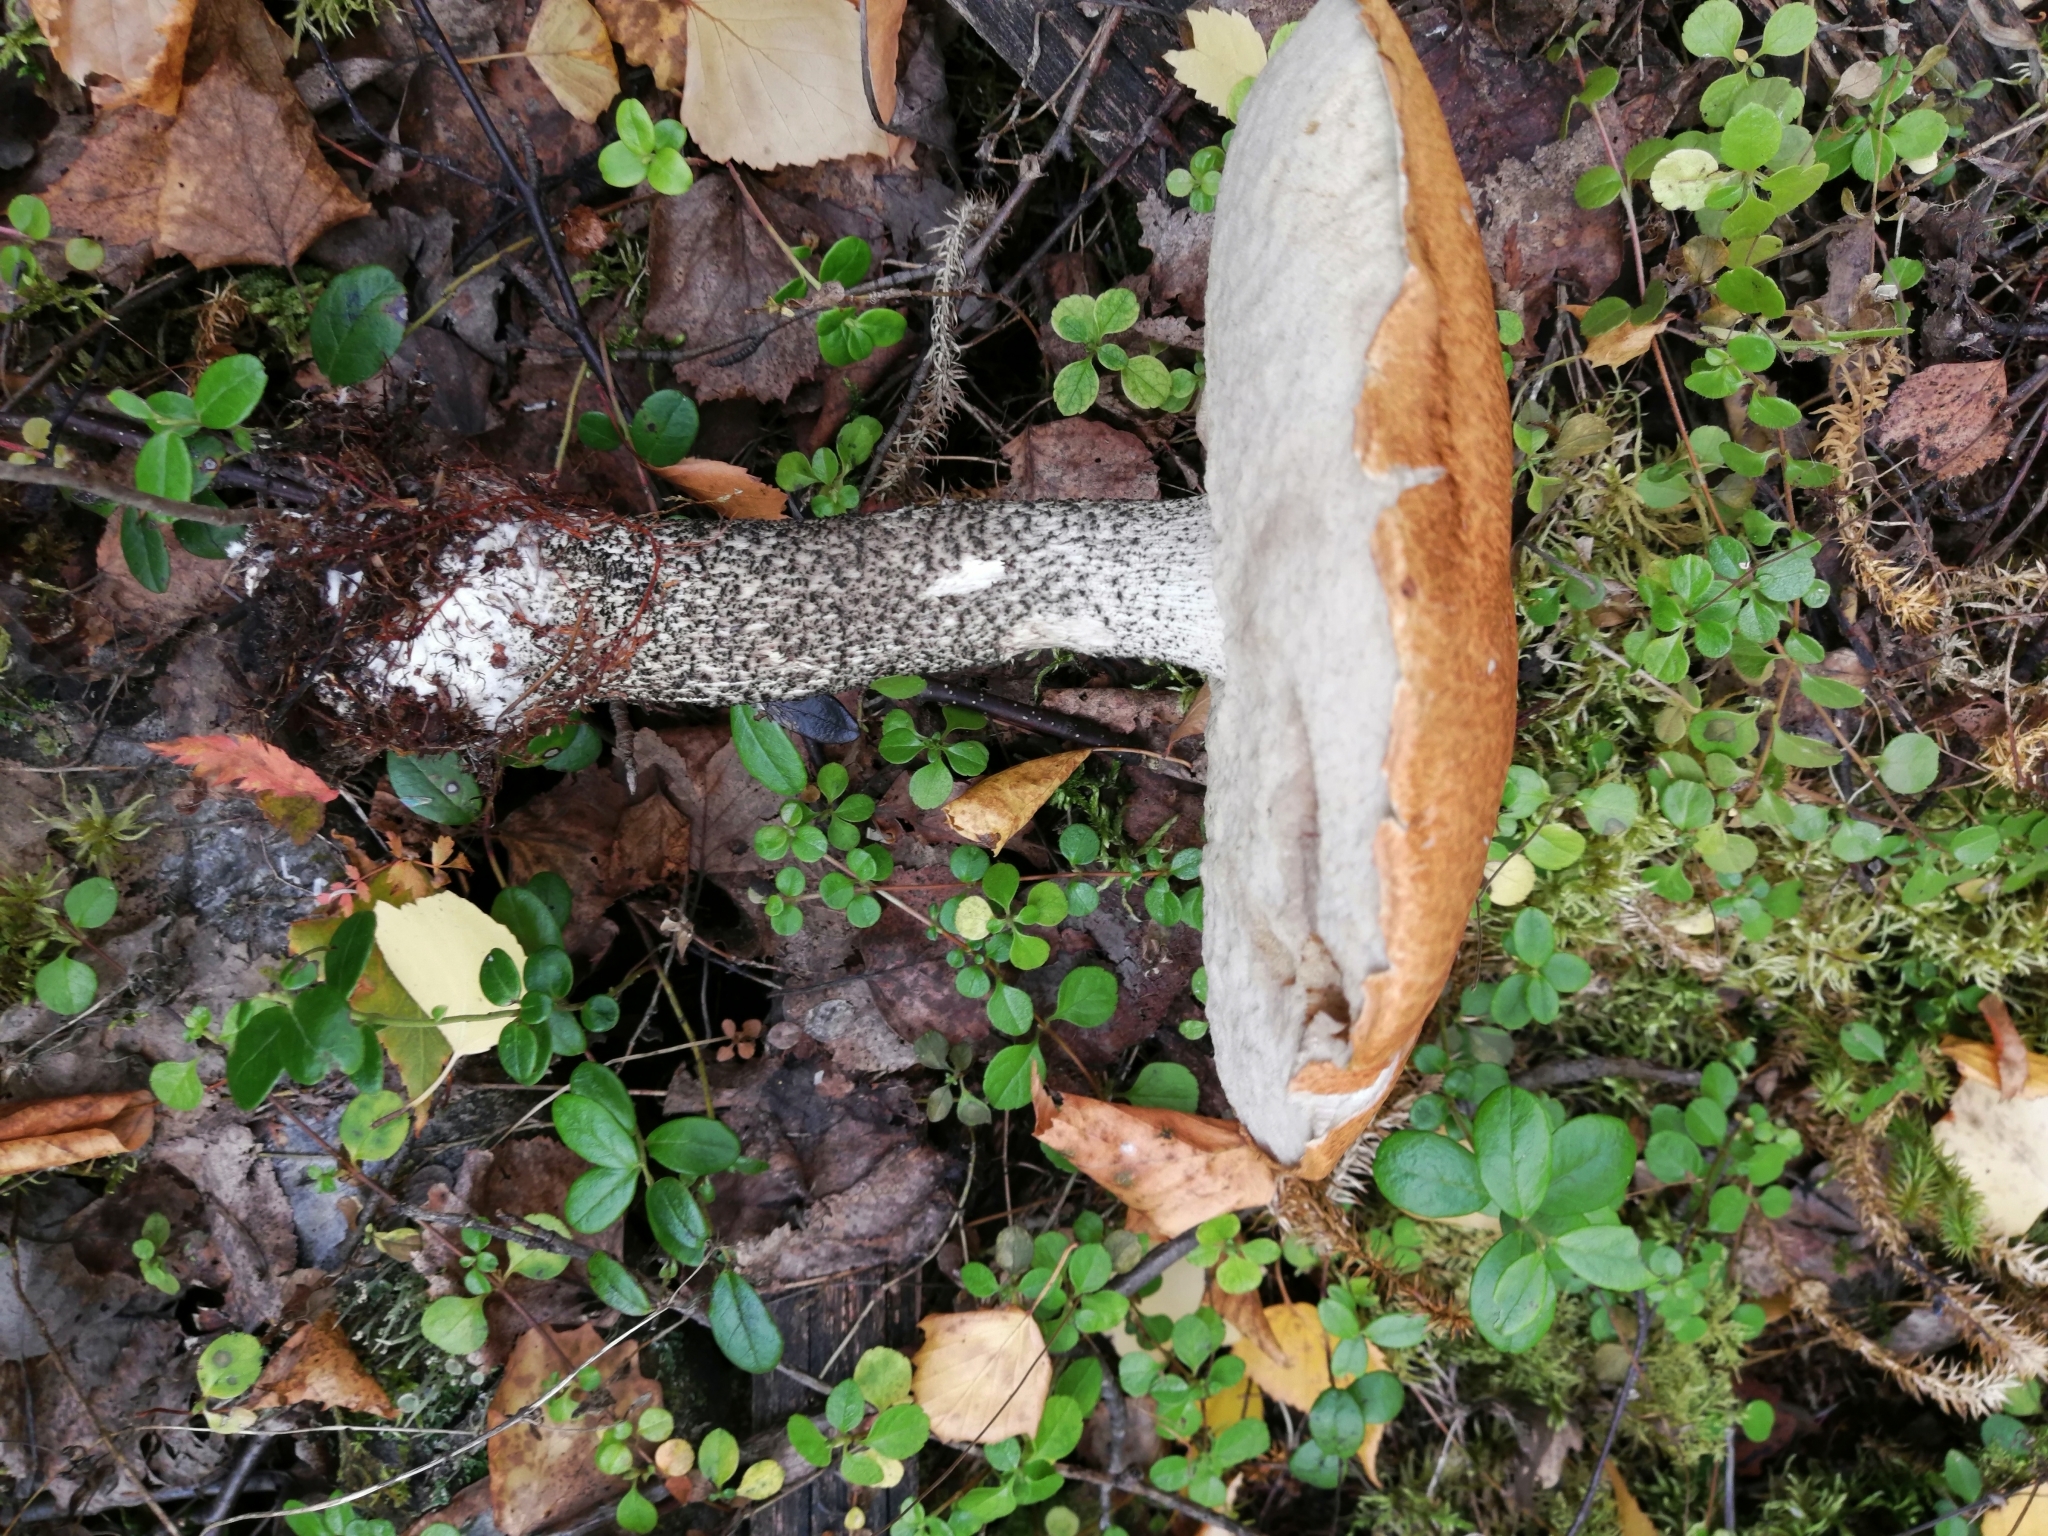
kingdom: Fungi
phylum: Basidiomycota
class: Agaricomycetes
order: Boletales
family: Boletaceae
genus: Leccinum
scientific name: Leccinum versipelle
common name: Orange birch bolete
